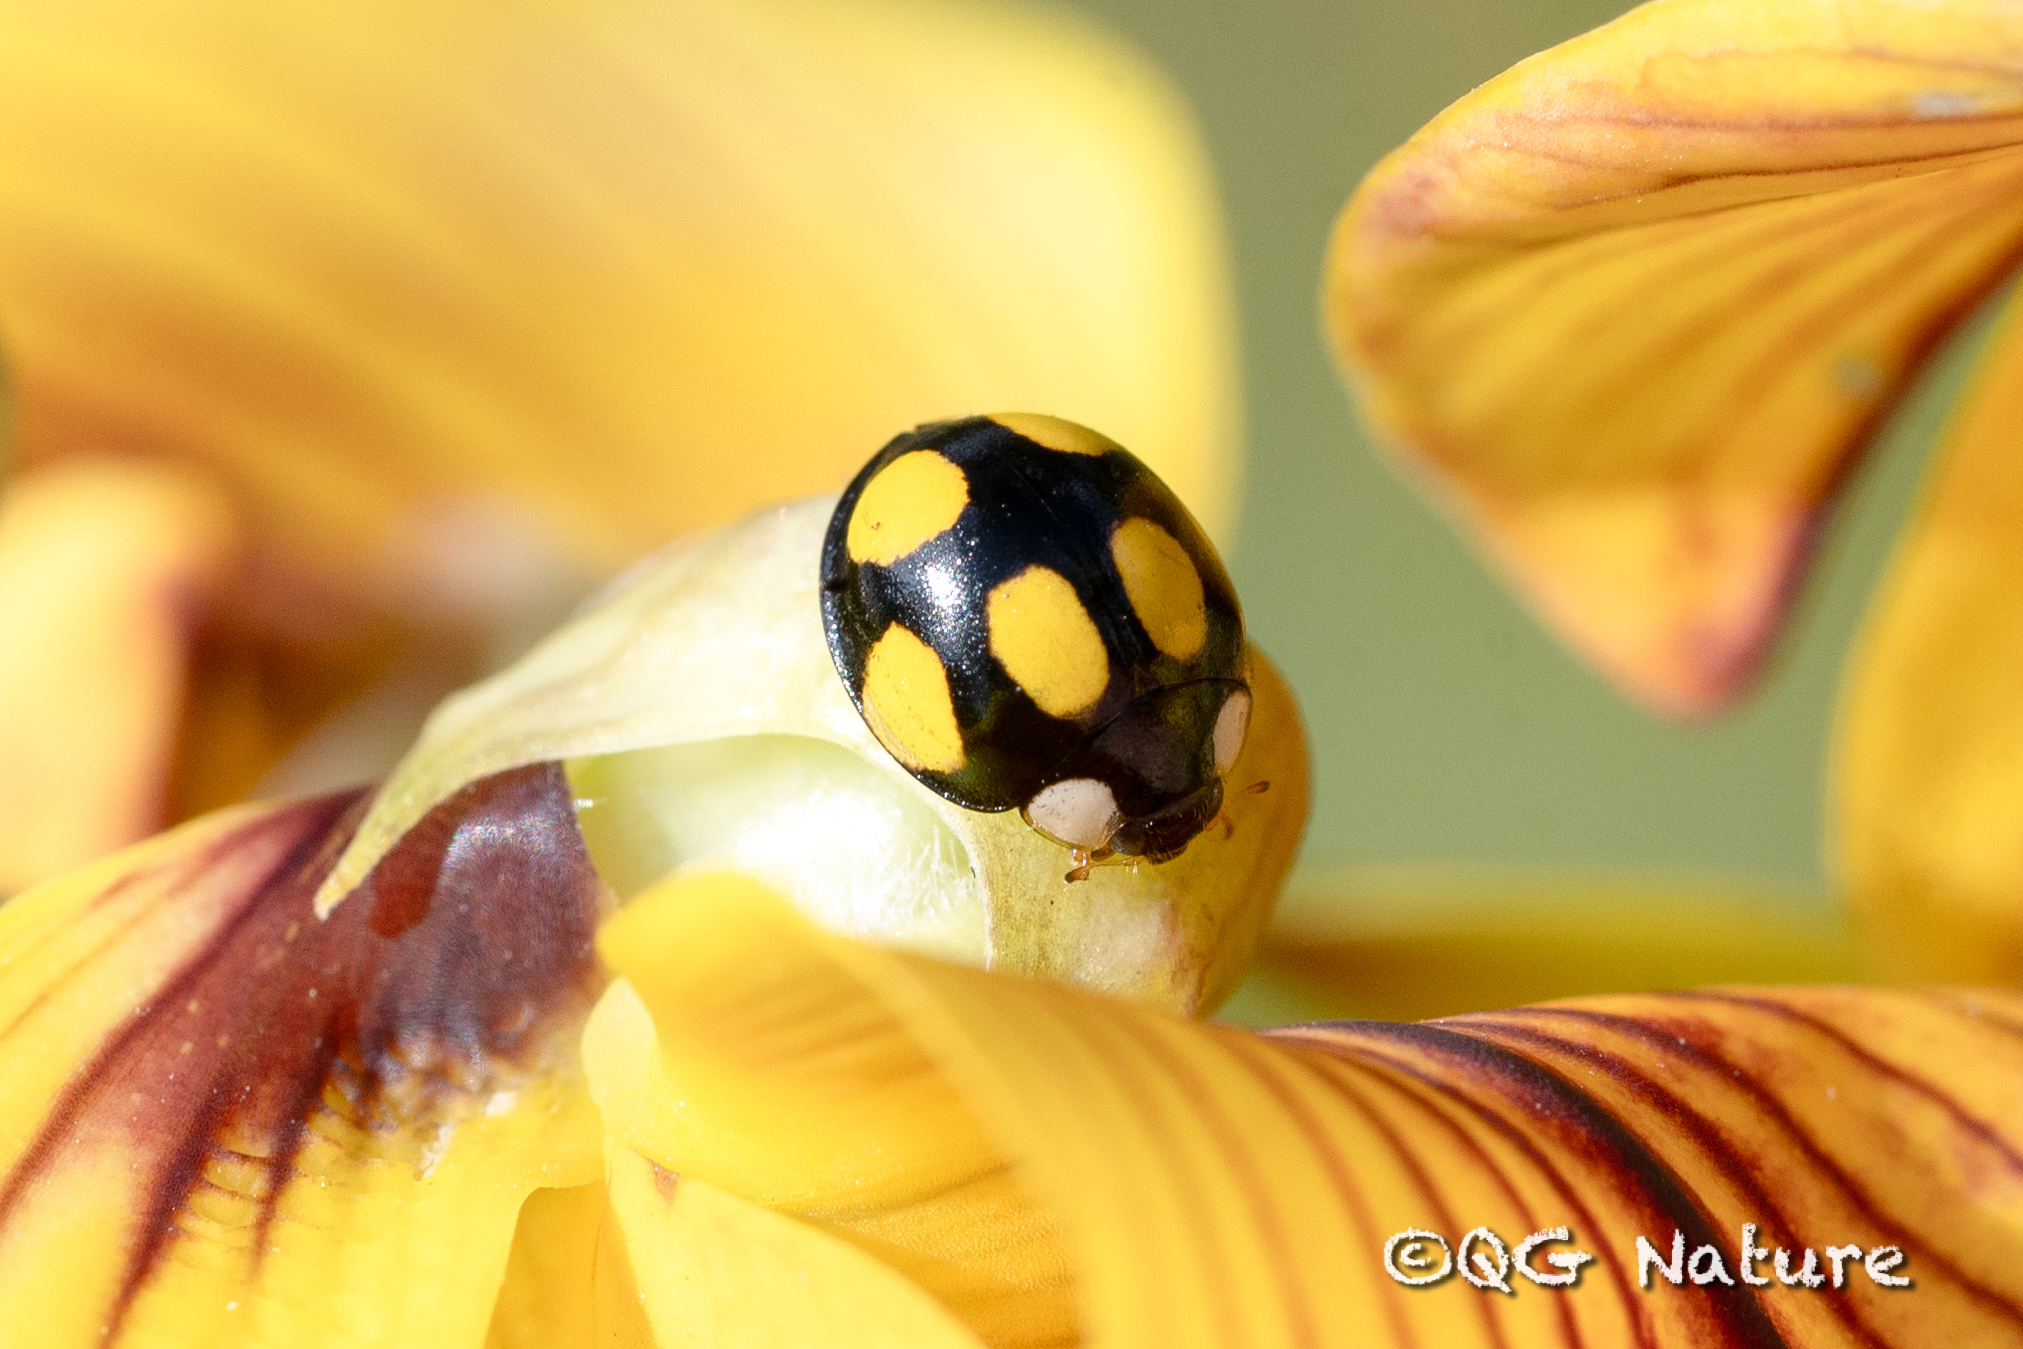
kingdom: Animalia
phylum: Arthropoda
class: Insecta
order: Coleoptera
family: Coccinellidae
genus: Oenopia
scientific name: Oenopia formosana
